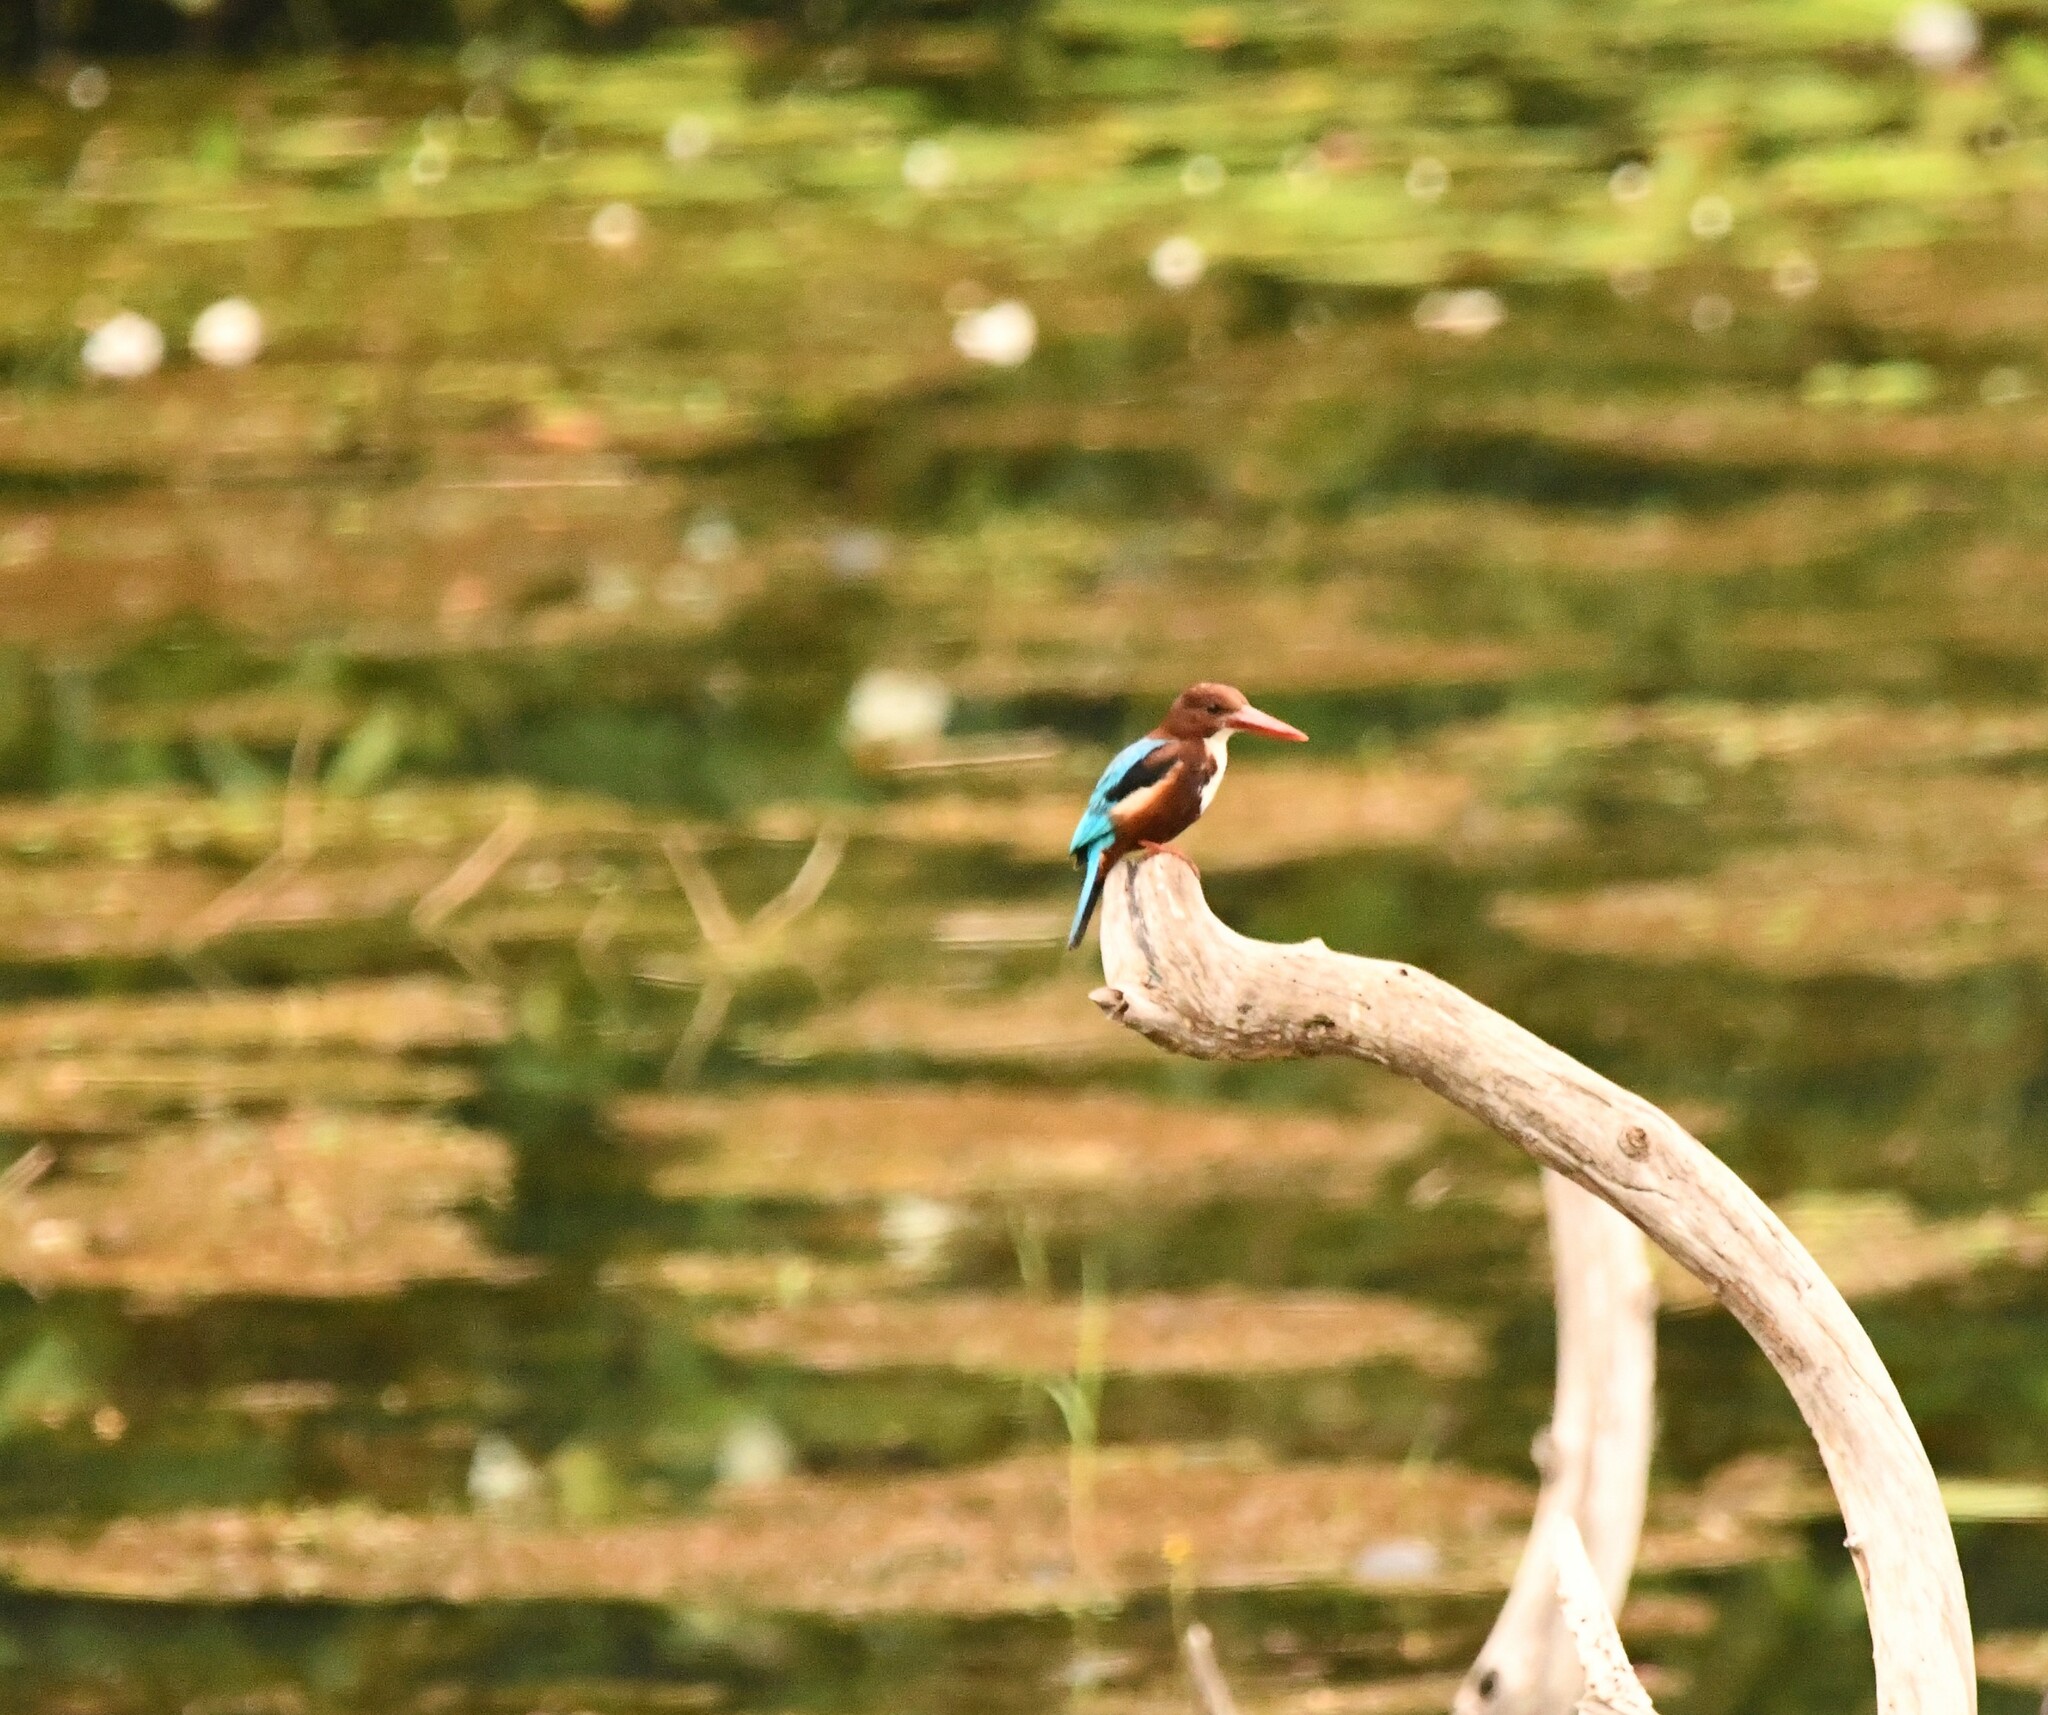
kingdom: Animalia
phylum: Chordata
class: Aves
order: Coraciiformes
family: Alcedinidae
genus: Halcyon
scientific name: Halcyon smyrnensis
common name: White-throated kingfisher
